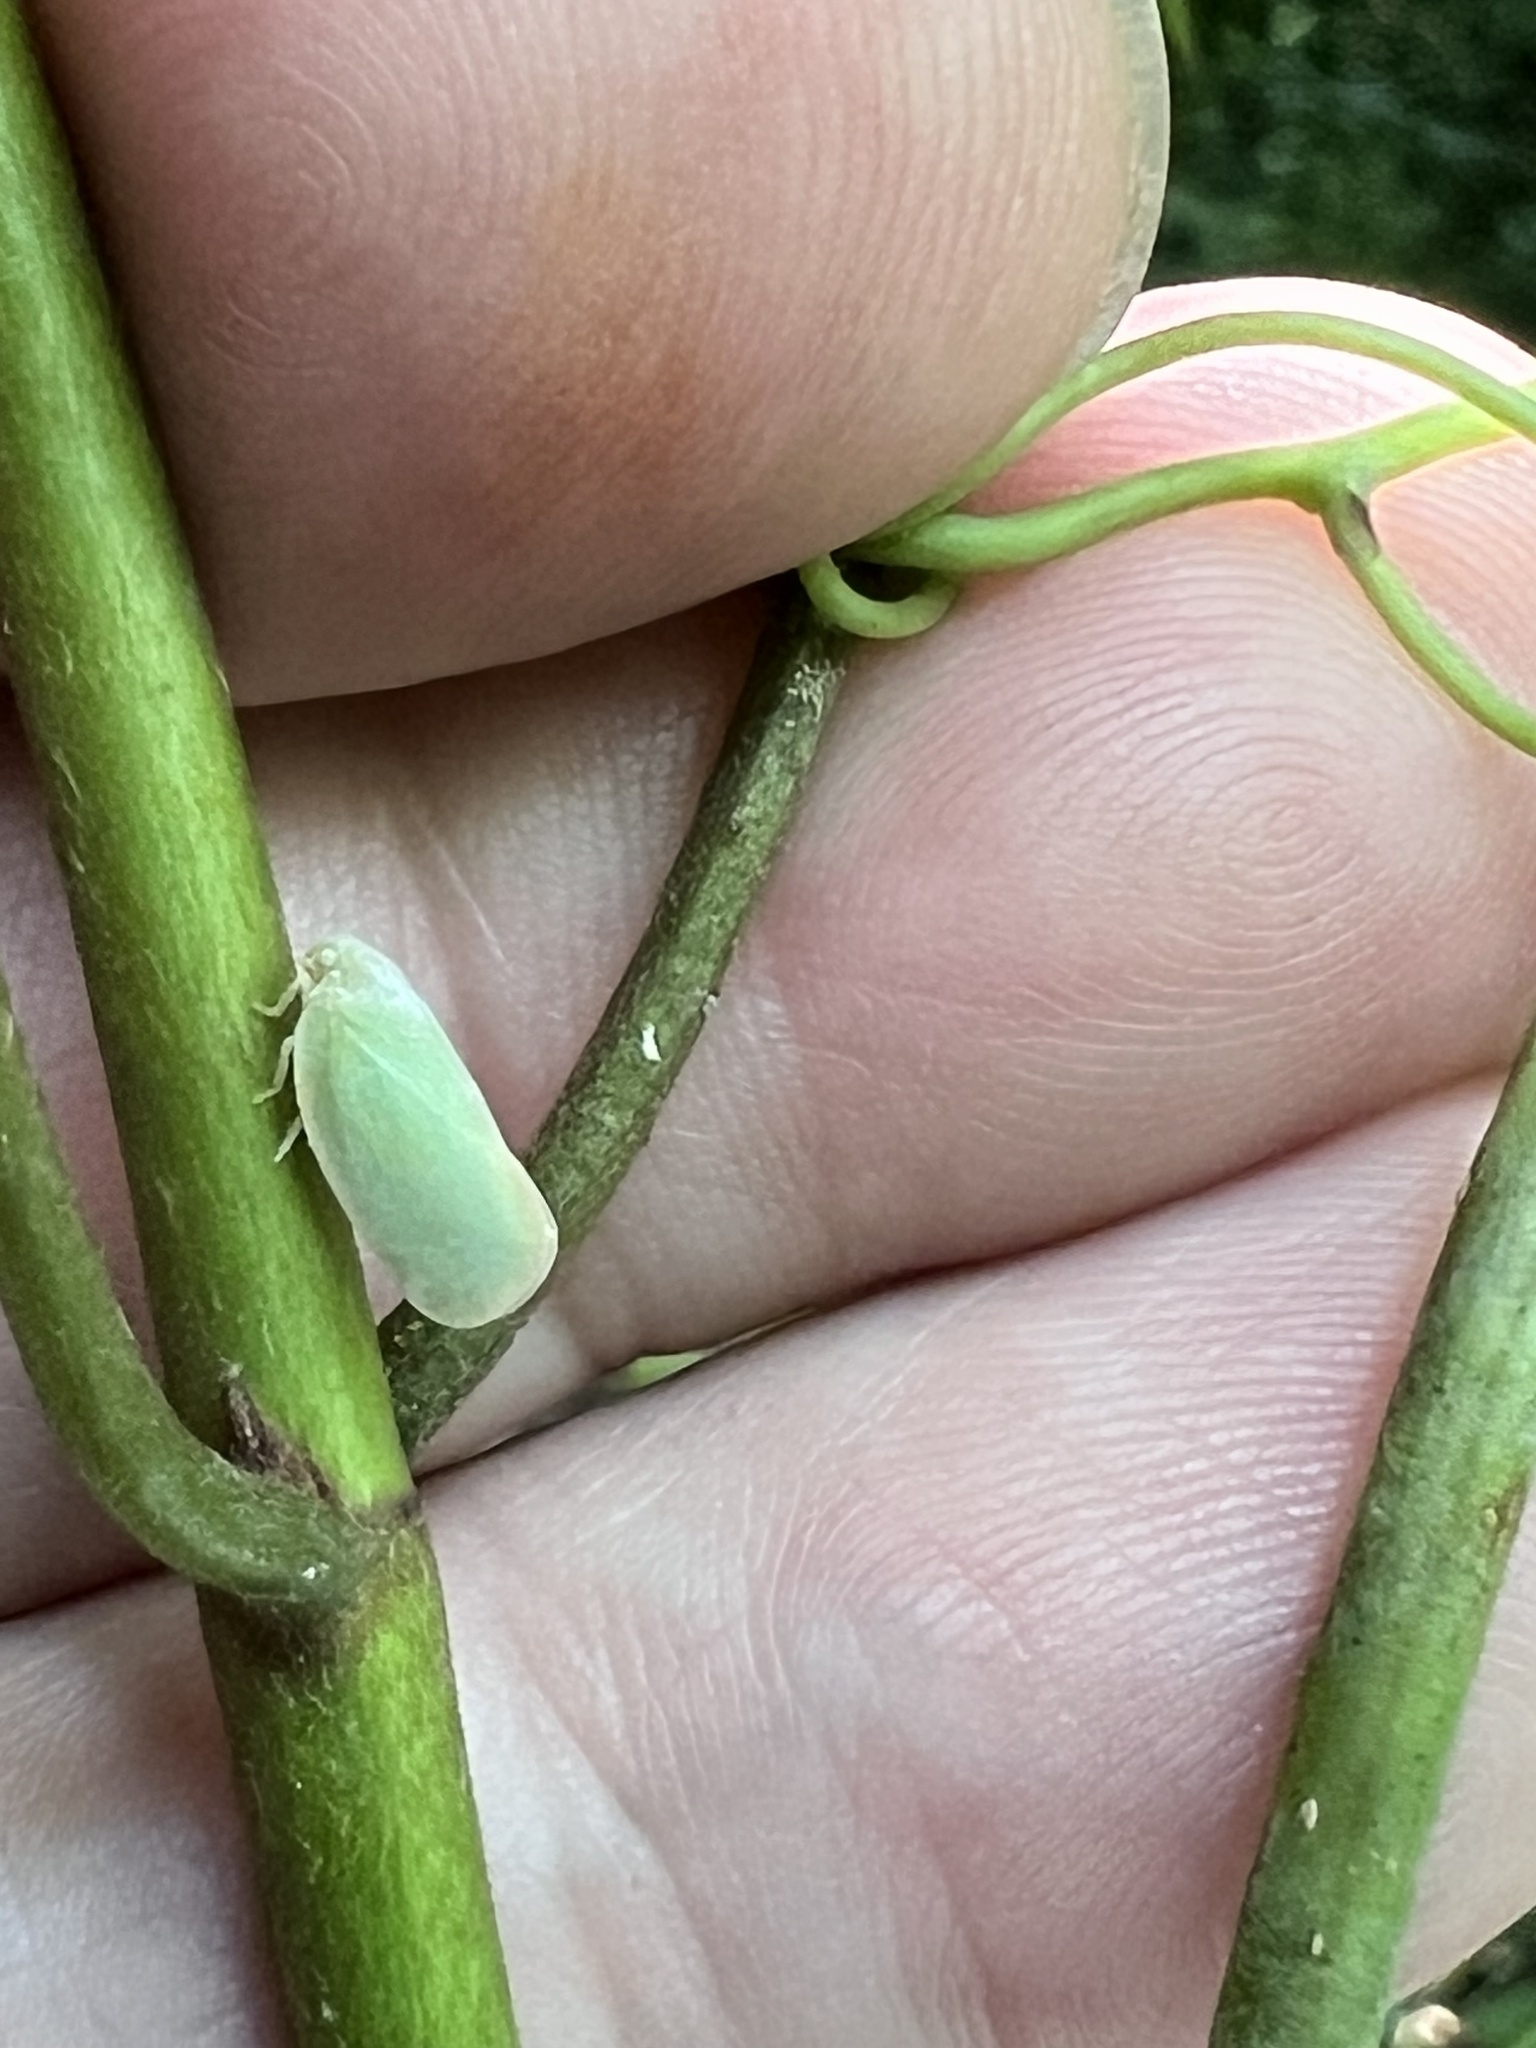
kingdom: Animalia
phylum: Arthropoda
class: Insecta
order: Hemiptera
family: Flatidae
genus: Ormenoides
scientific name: Ormenoides venusta
